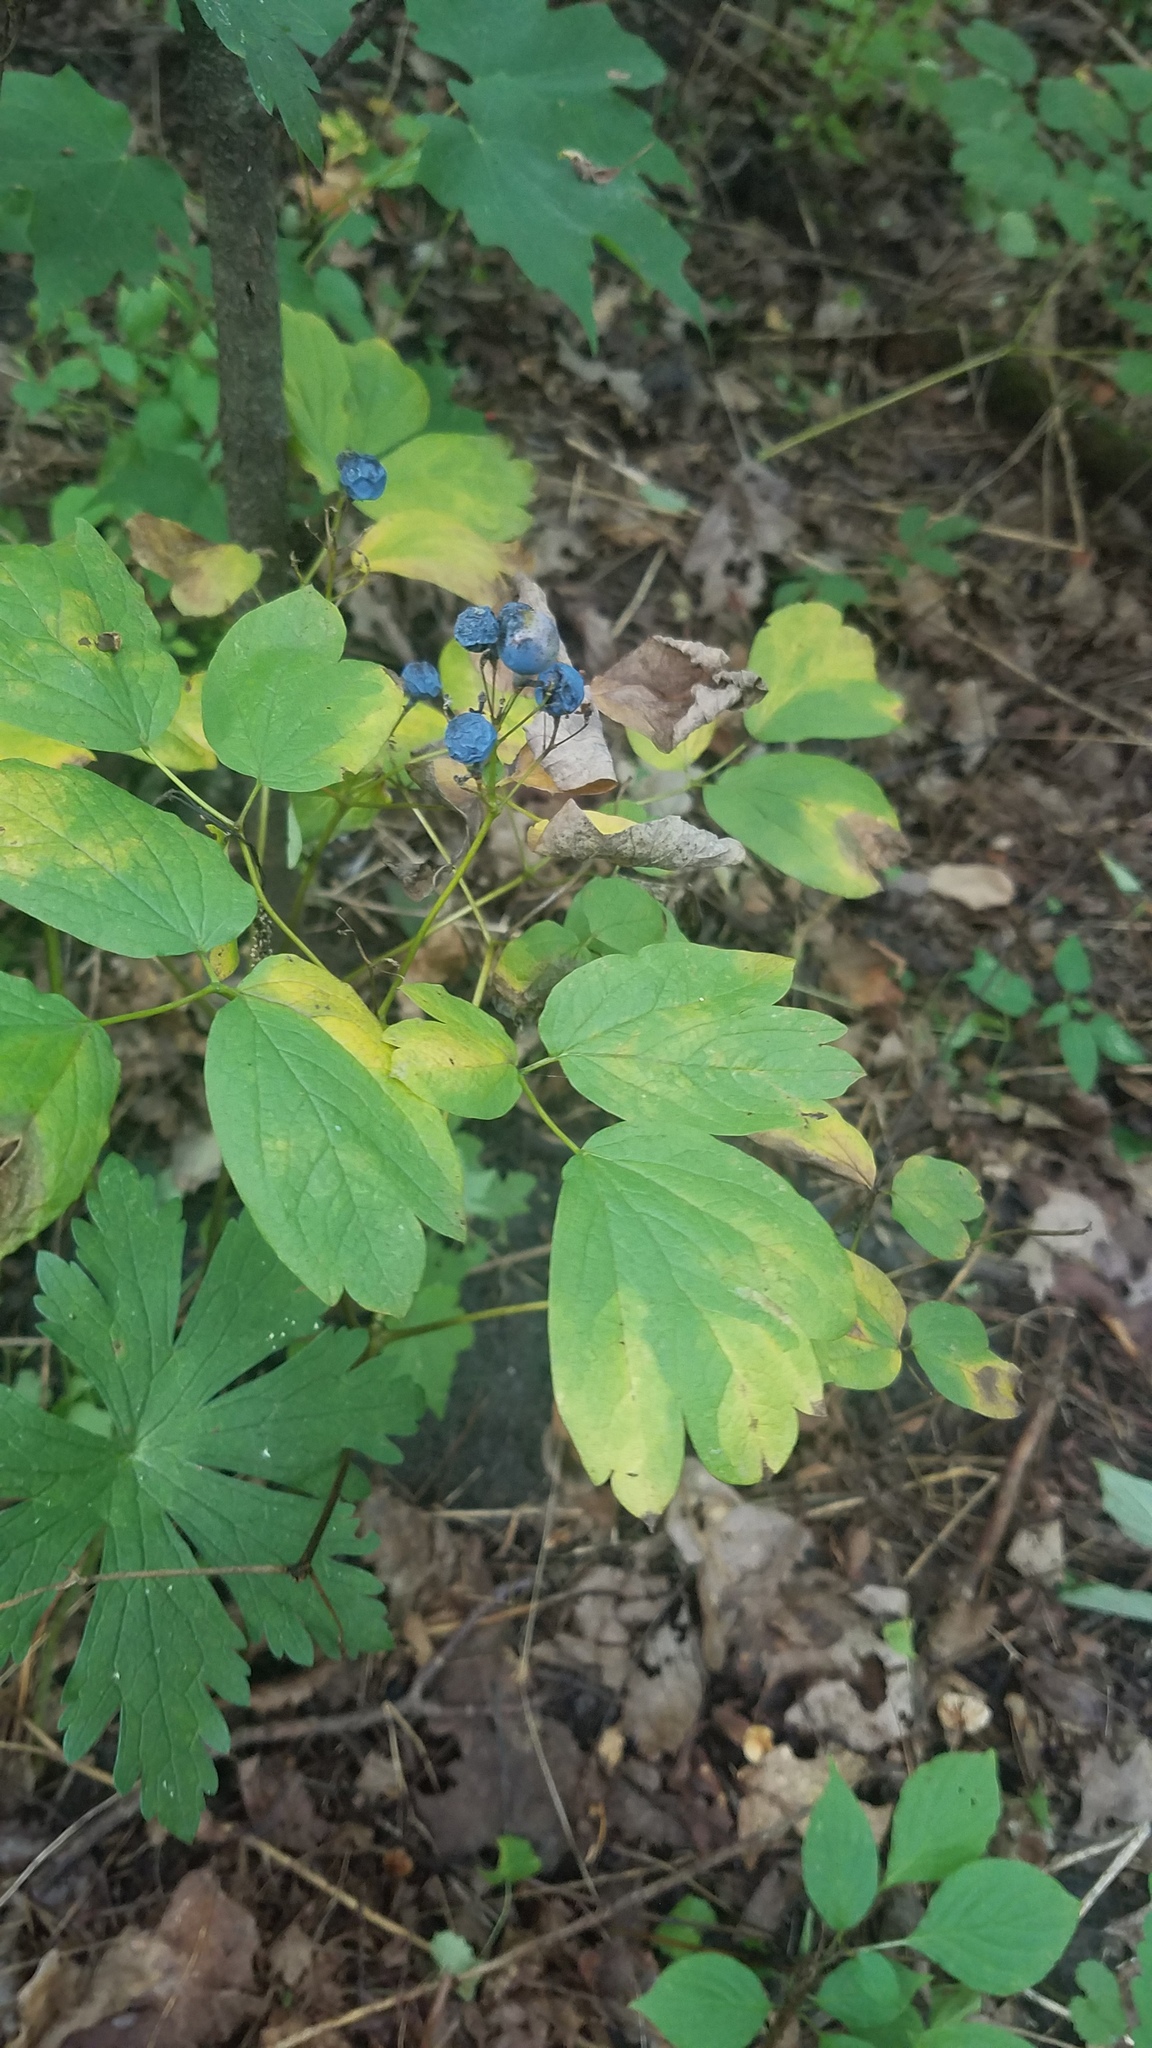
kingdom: Plantae
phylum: Tracheophyta
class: Magnoliopsida
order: Ranunculales
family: Berberidaceae
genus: Caulophyllum
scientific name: Caulophyllum thalictroides
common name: Blue cohosh
